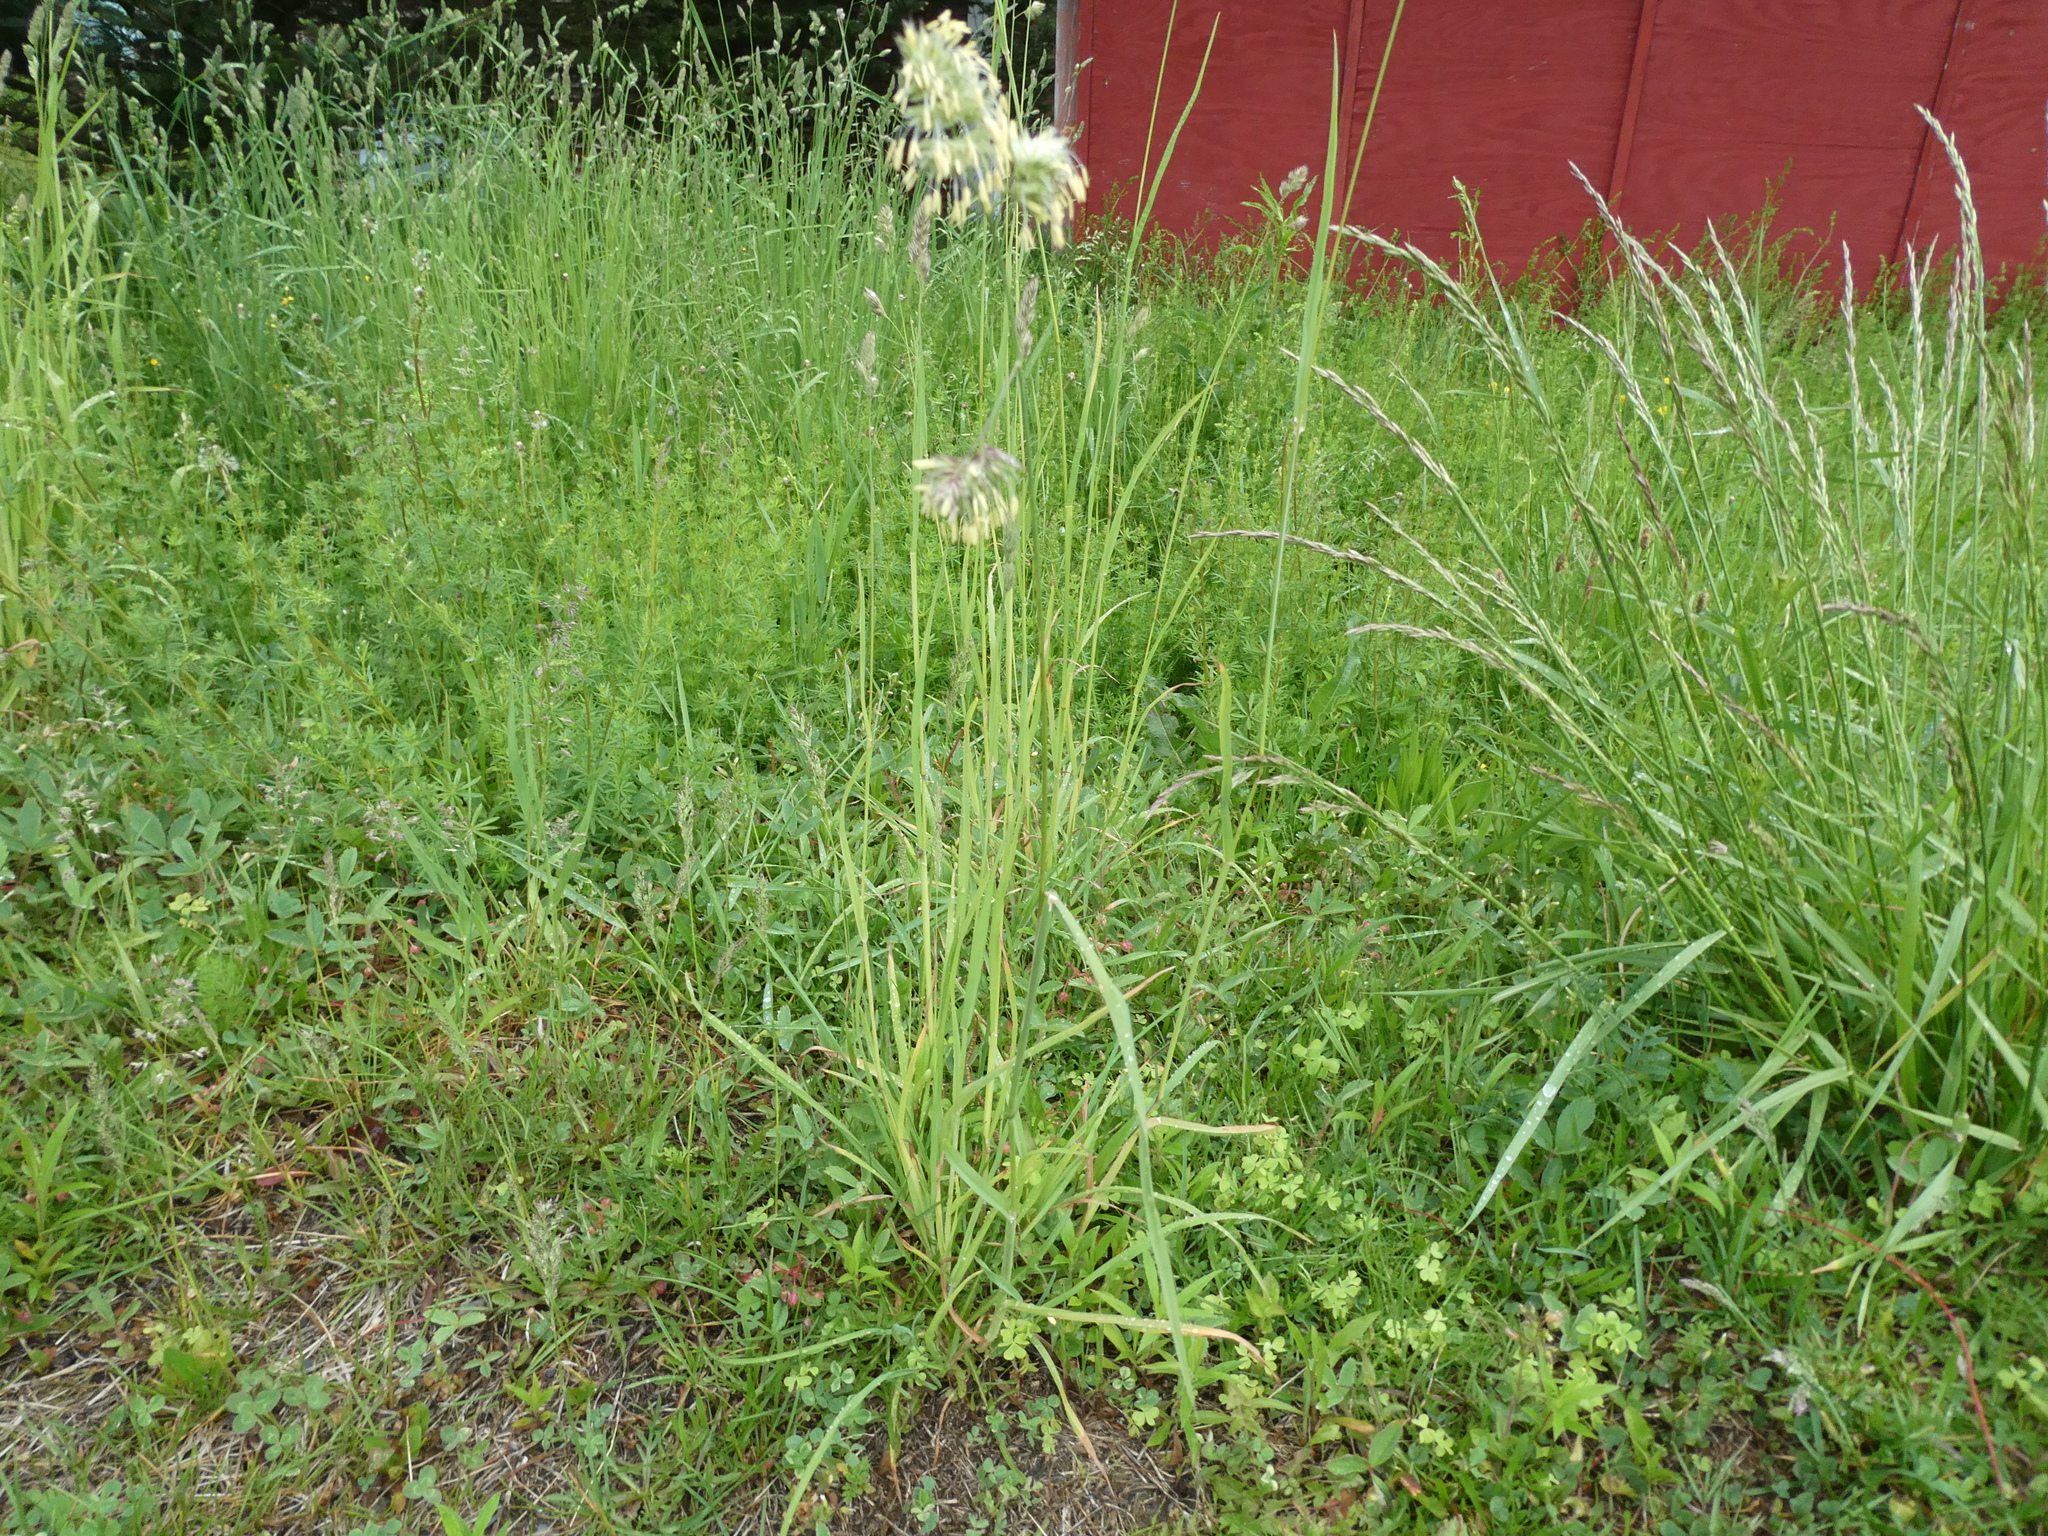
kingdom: Plantae
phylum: Tracheophyta
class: Liliopsida
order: Poales
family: Poaceae
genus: Dactylis
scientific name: Dactylis glomerata
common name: Orchardgrass
